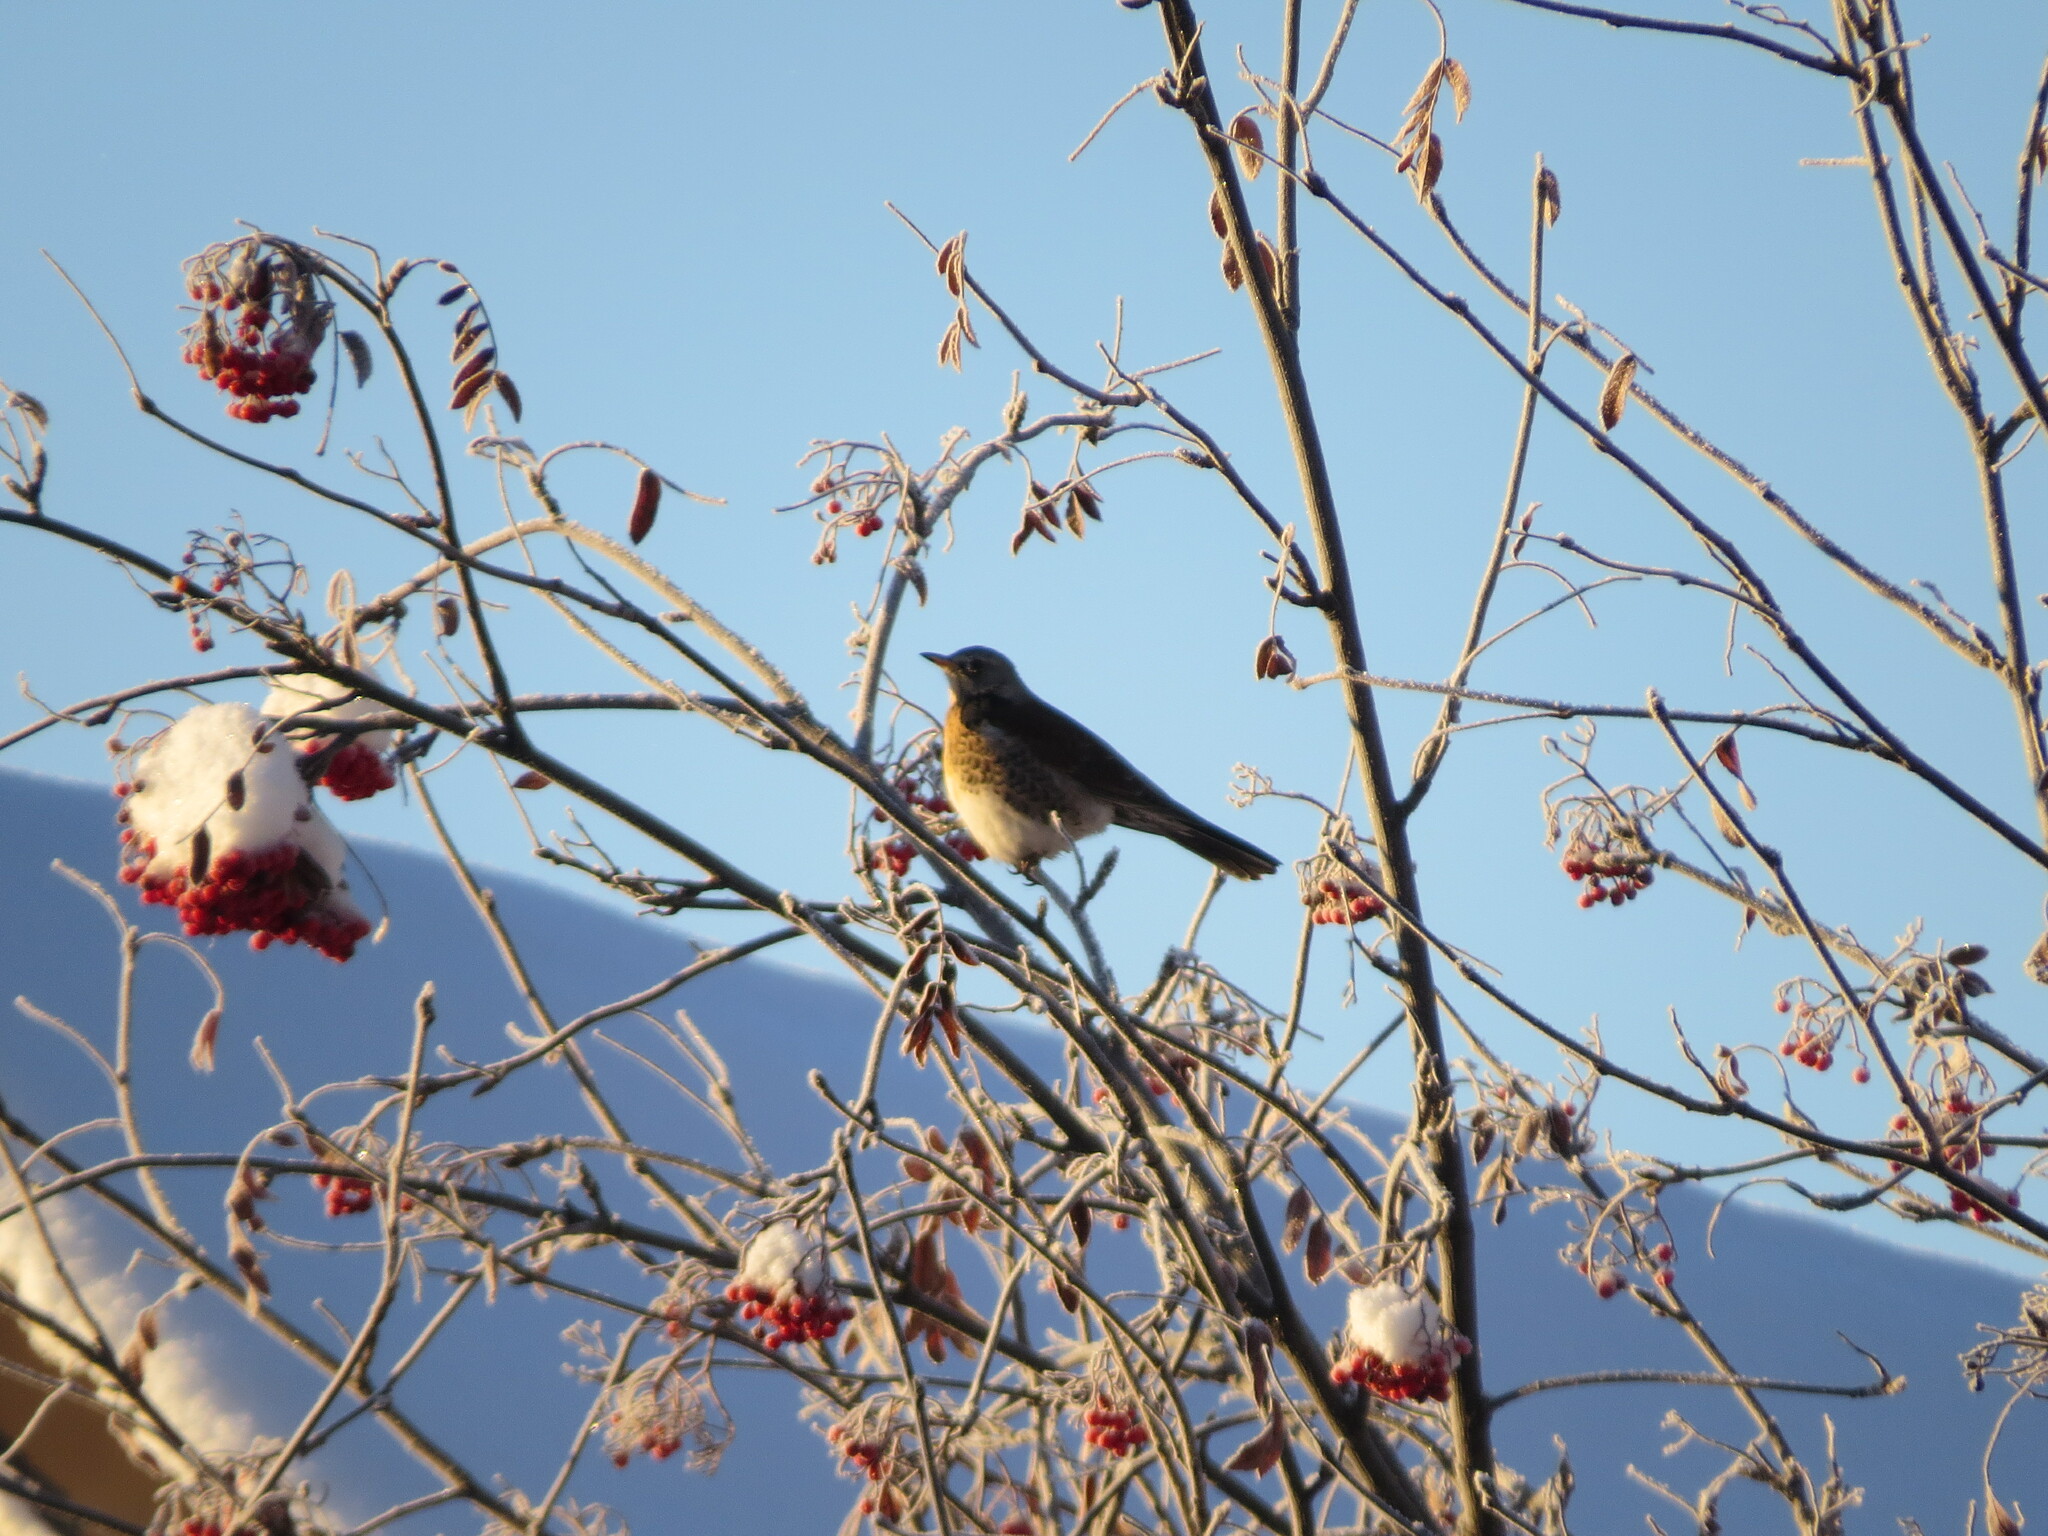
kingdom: Animalia
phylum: Chordata
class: Aves
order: Passeriformes
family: Turdidae
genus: Turdus
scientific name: Turdus pilaris
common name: Fieldfare
